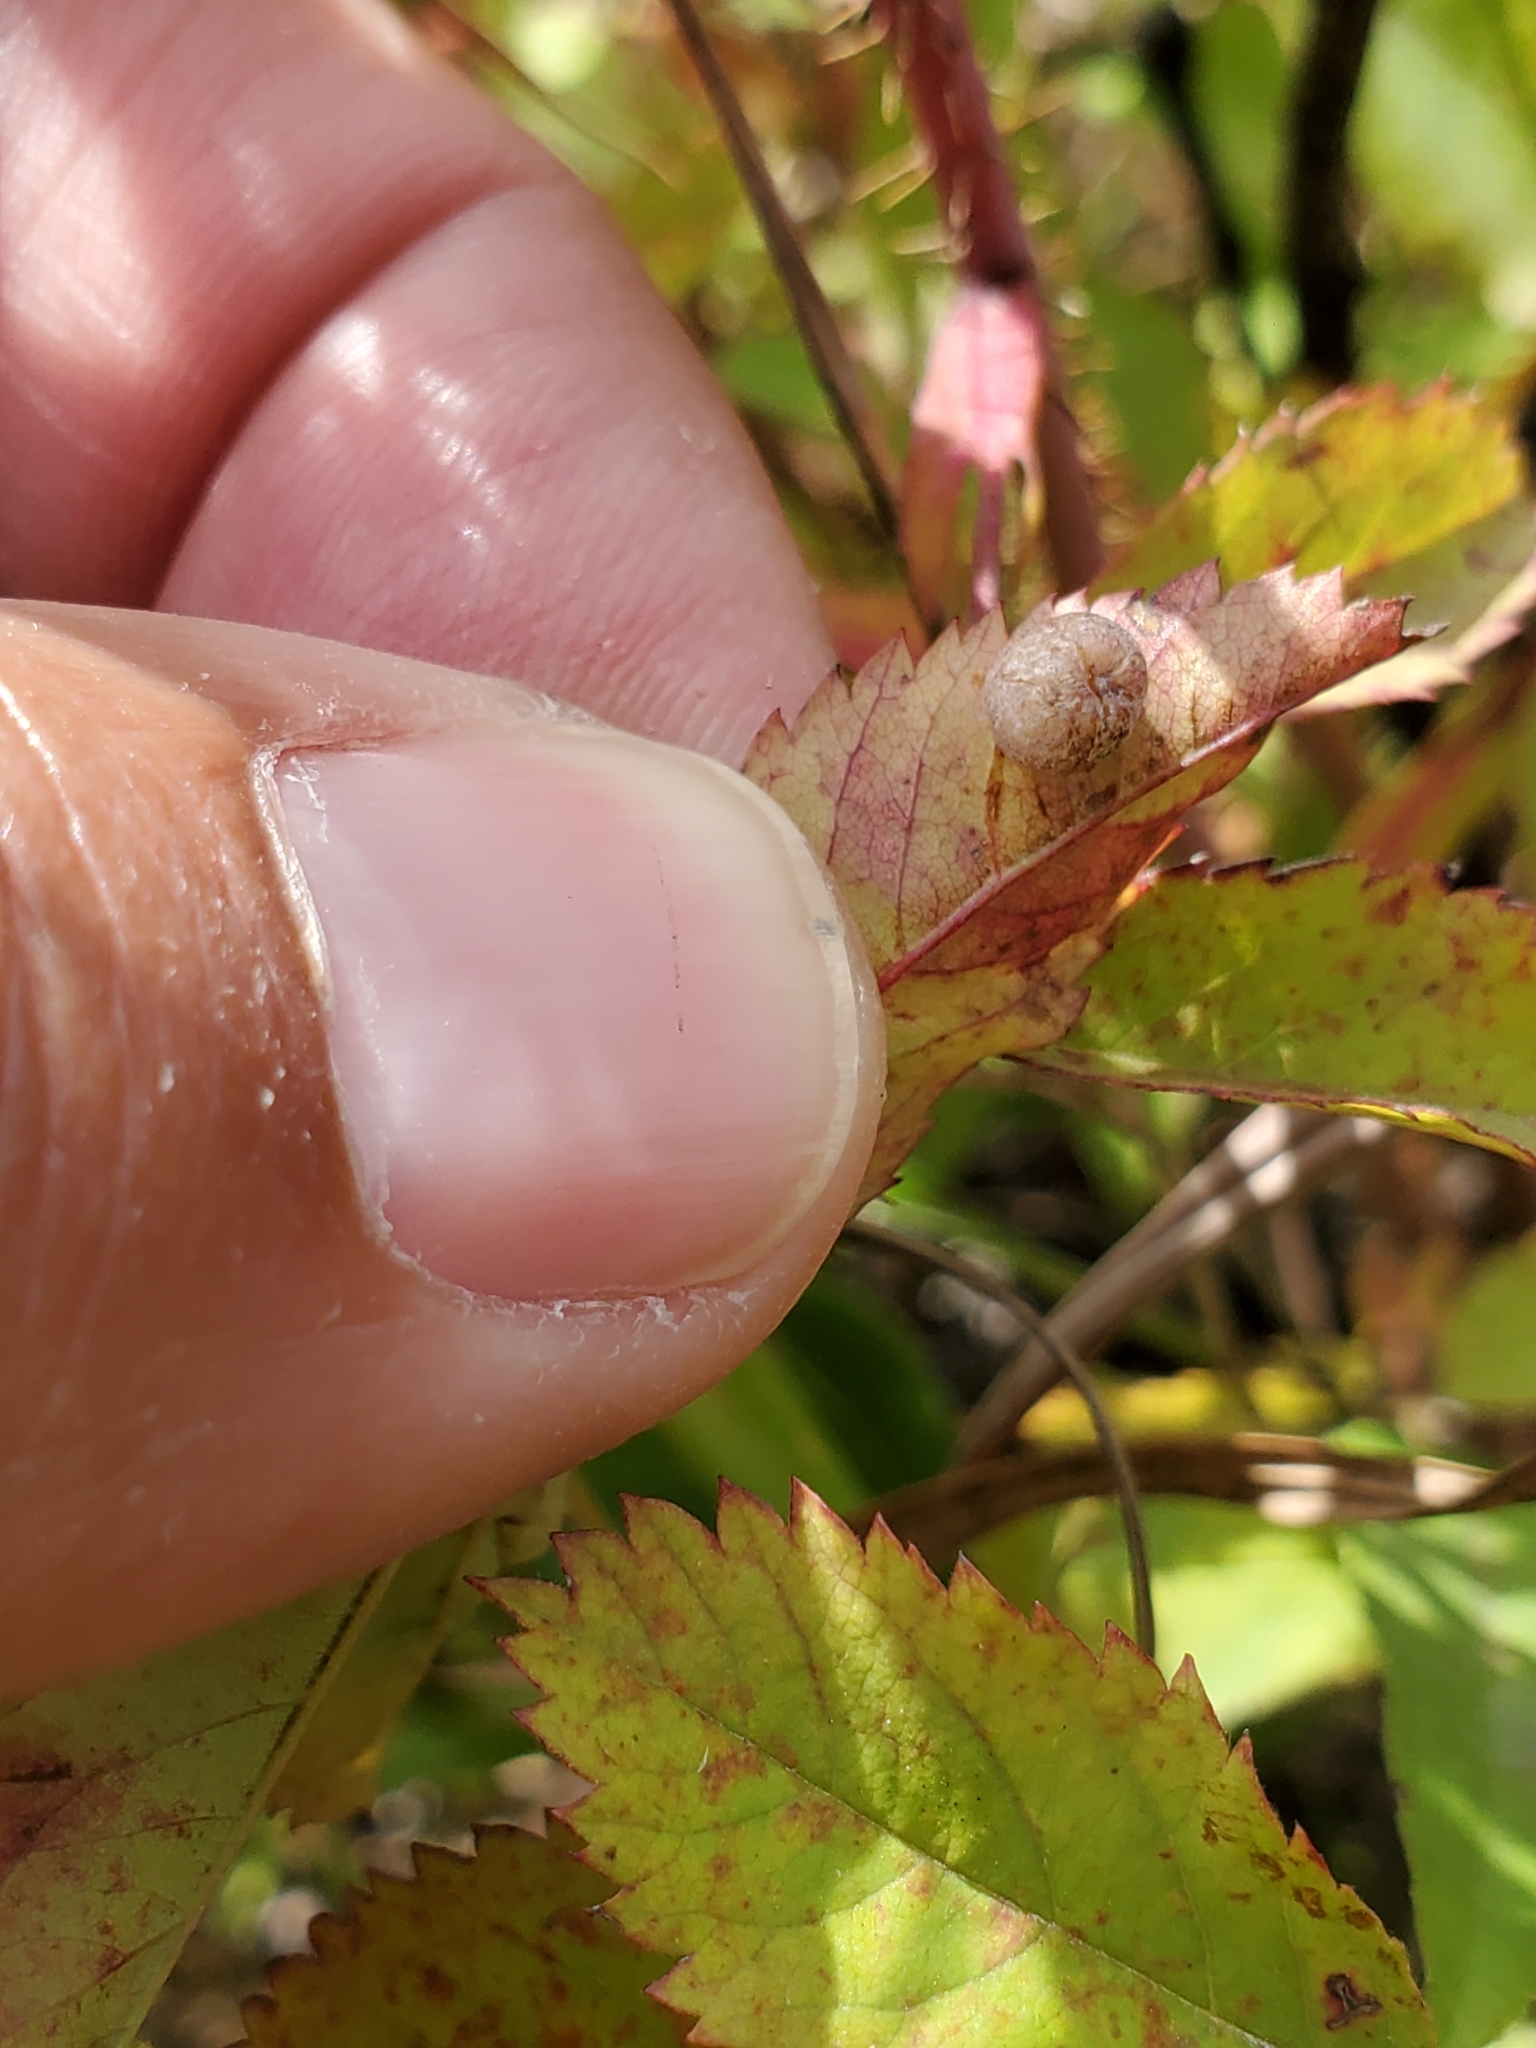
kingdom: Animalia
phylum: Arthropoda
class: Insecta
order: Hymenoptera
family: Cynipidae
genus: Diplolepis
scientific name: Diplolepis nebulosa
